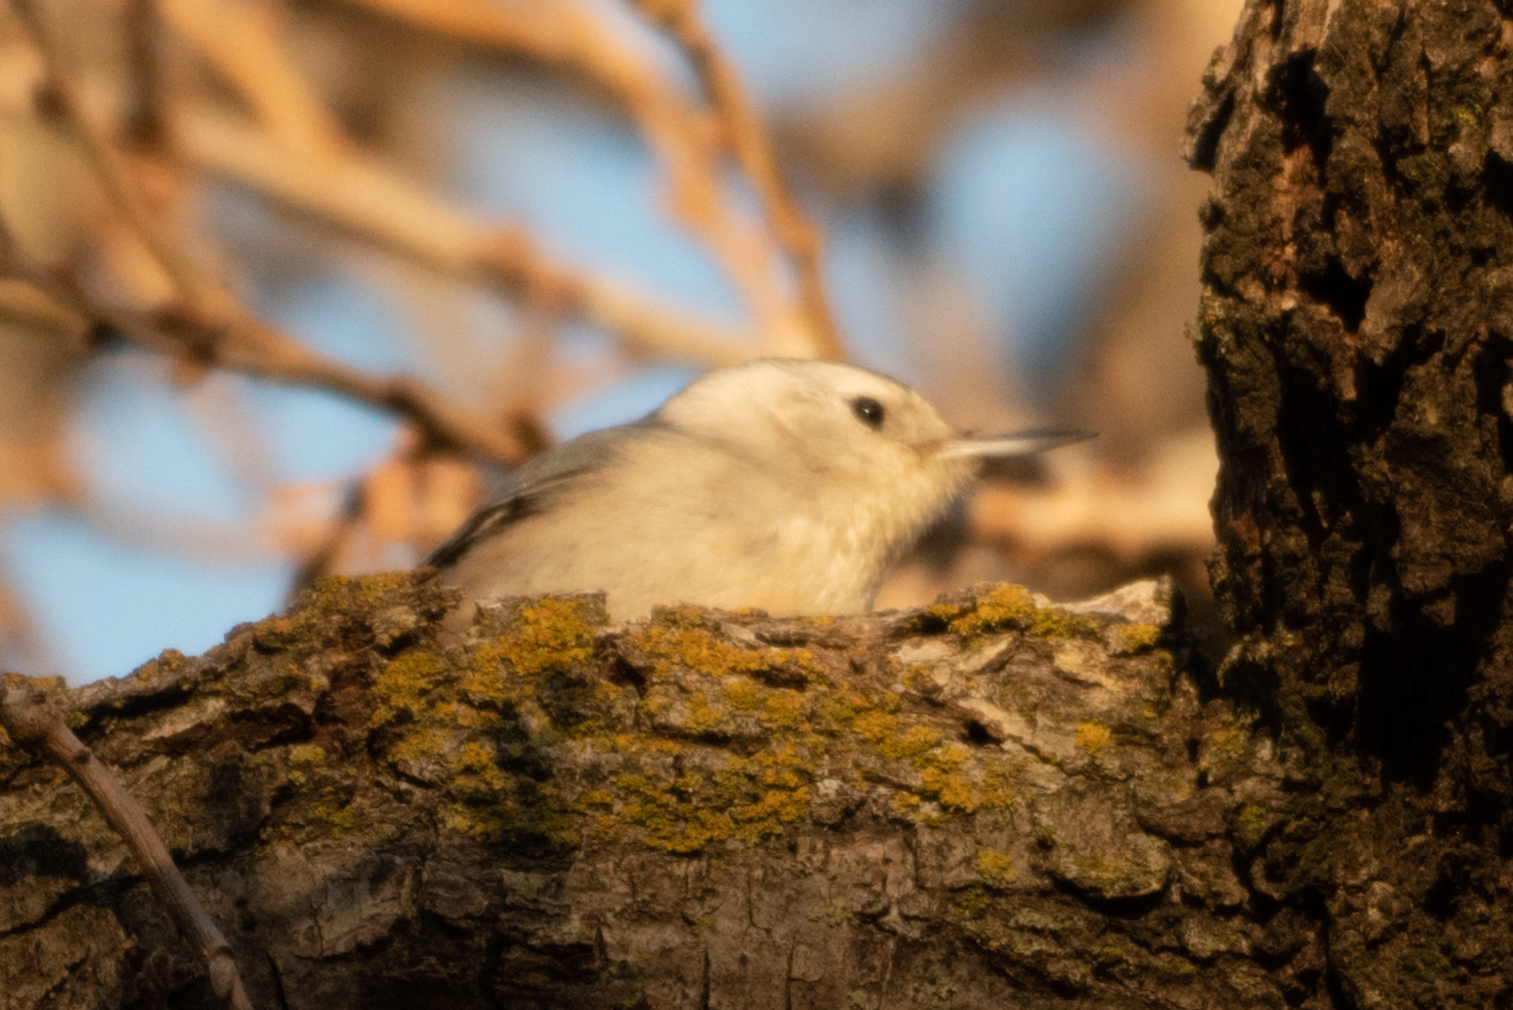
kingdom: Animalia
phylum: Chordata
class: Aves
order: Passeriformes
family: Sittidae
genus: Sitta
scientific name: Sitta carolinensis
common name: White-breasted nuthatch
